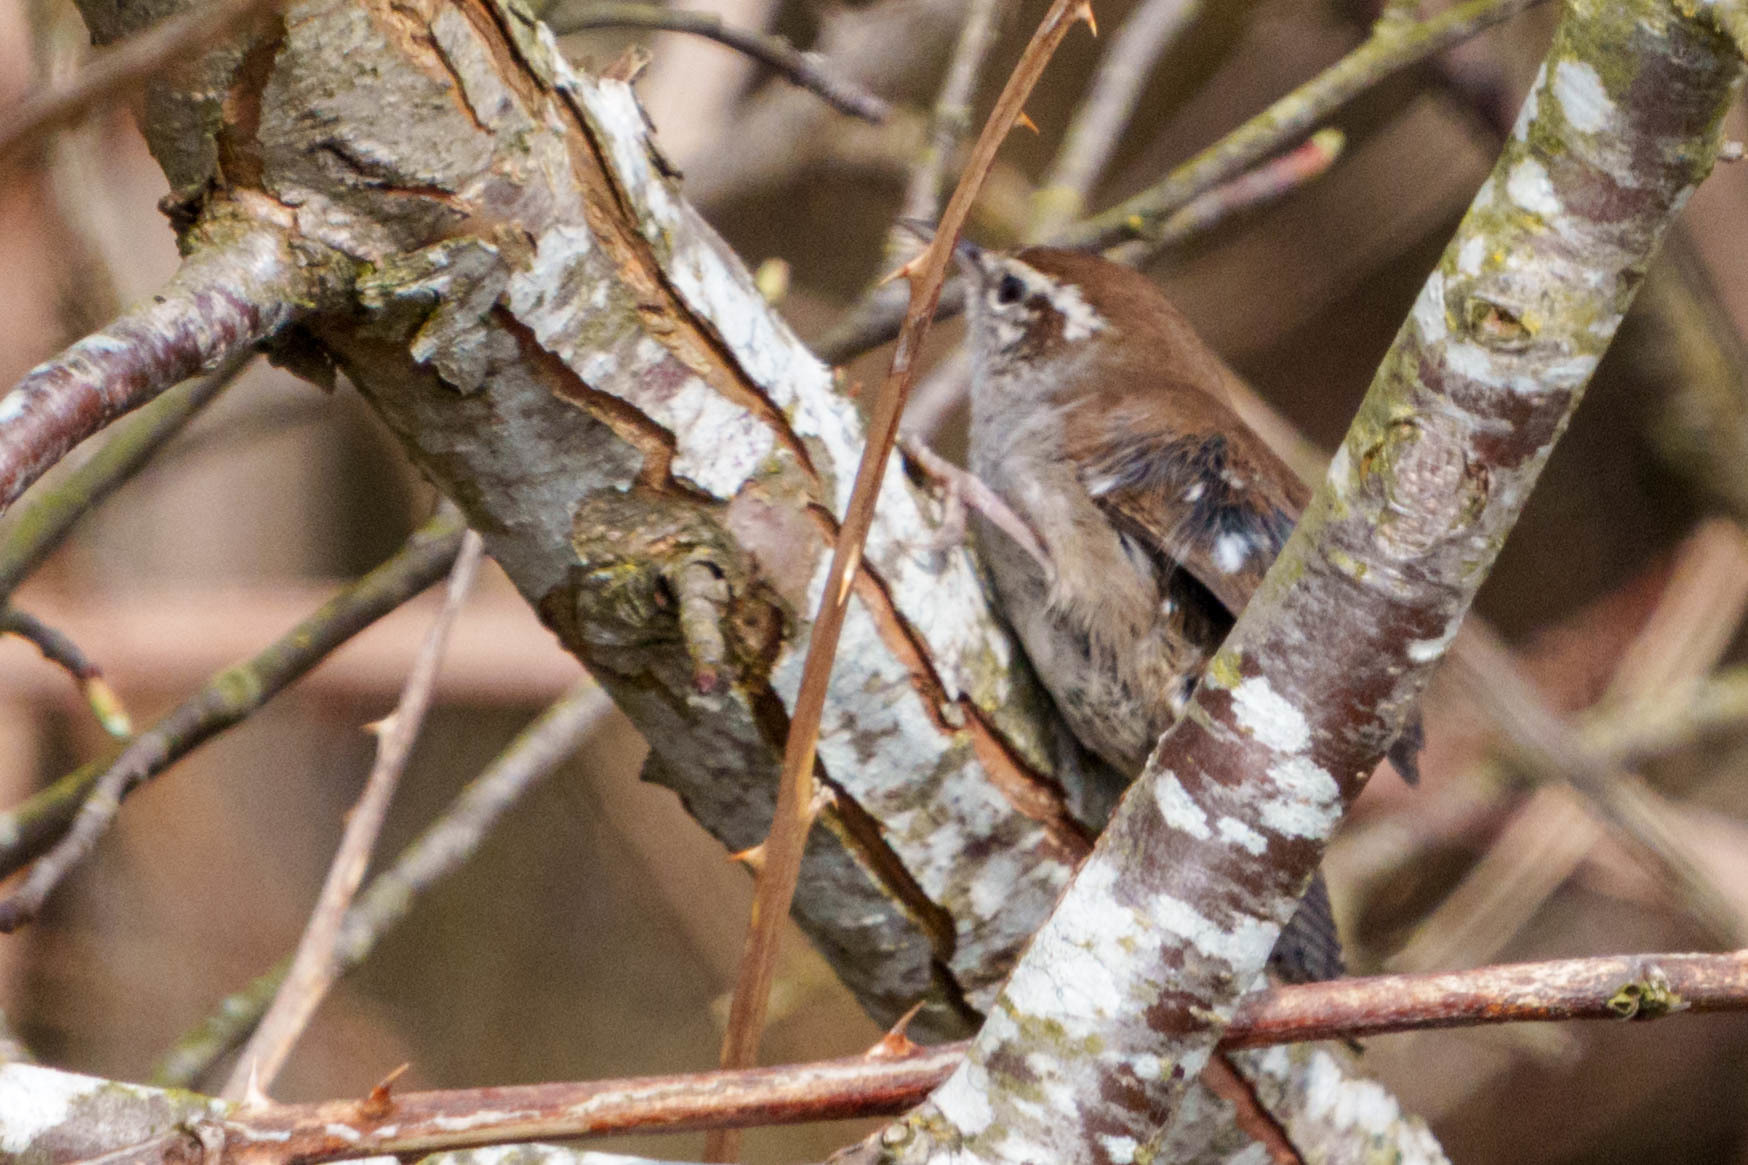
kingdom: Animalia
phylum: Chordata
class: Aves
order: Passeriformes
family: Troglodytidae
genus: Thryomanes
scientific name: Thryomanes bewickii
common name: Bewick's wren
